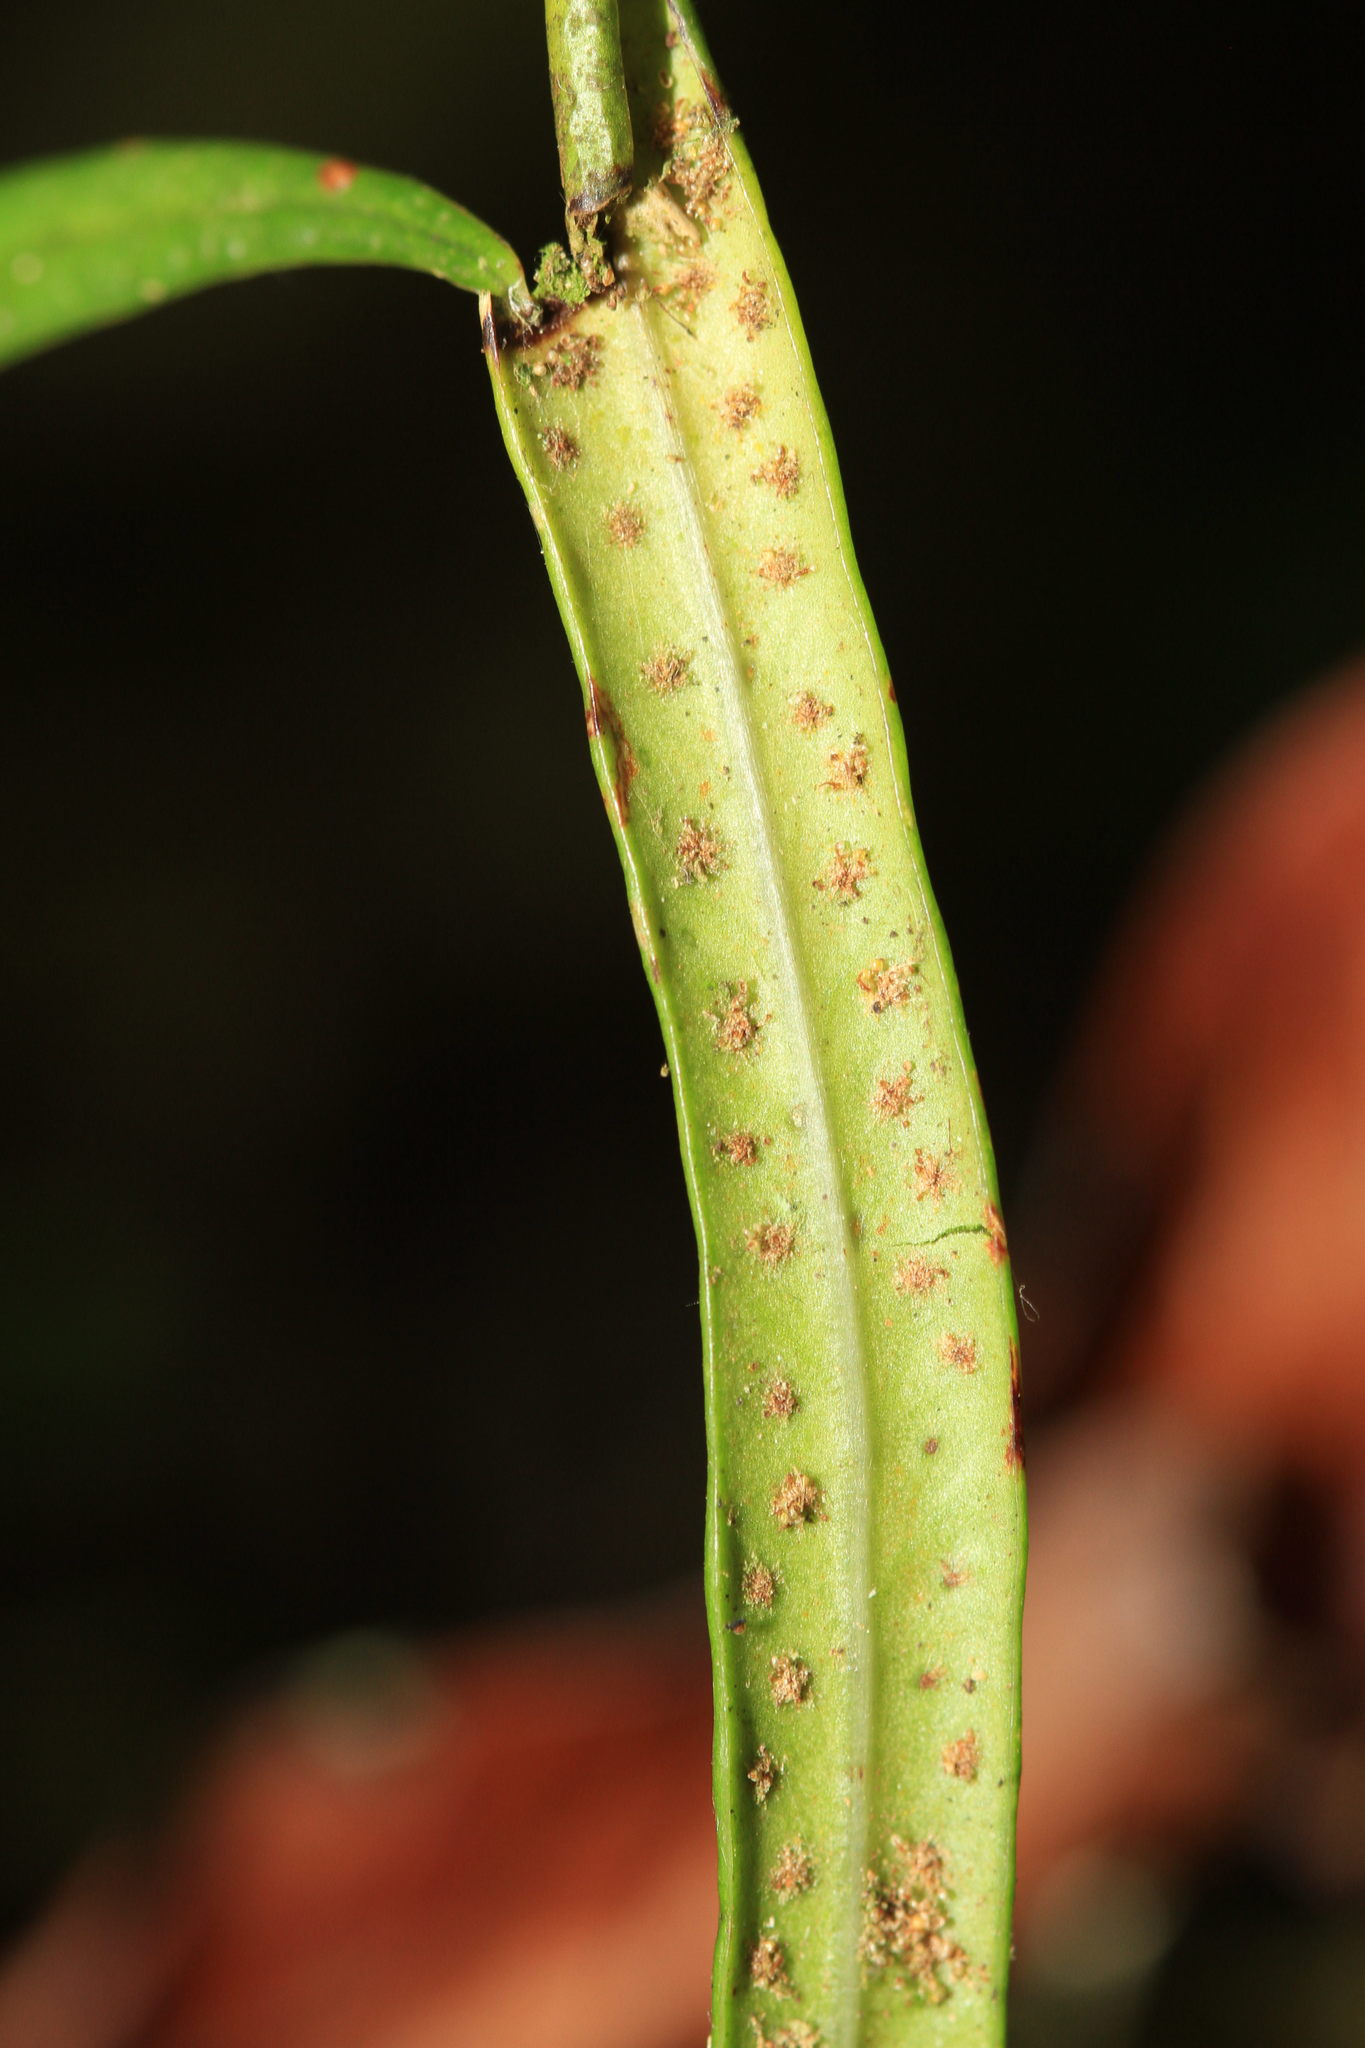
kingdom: Plantae
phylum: Tracheophyta
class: Polypodiopsida
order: Polypodiales
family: Polypodiaceae
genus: Campyloneurum
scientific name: Campyloneurum angustifolium
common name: Narrow-leaf strap fern
